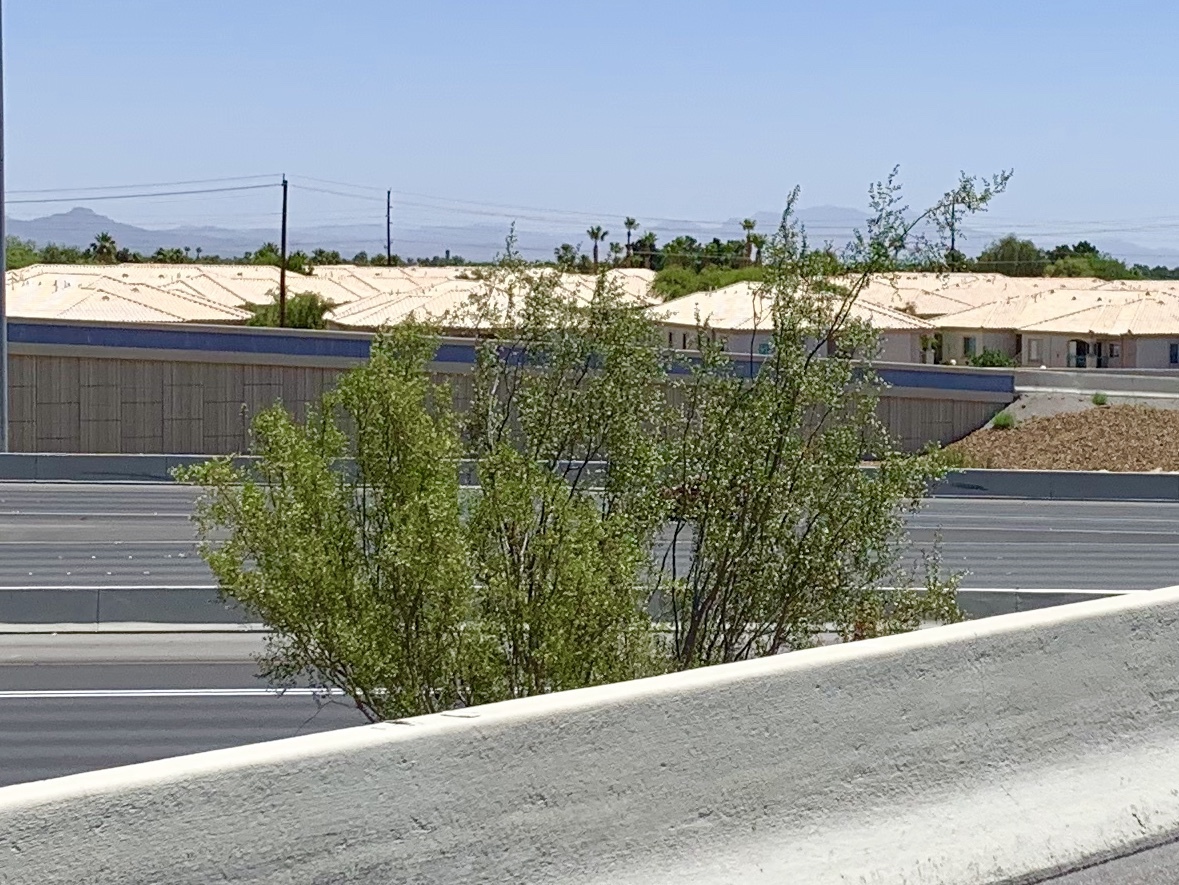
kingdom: Plantae
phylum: Tracheophyta
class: Magnoliopsida
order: Zygophyllales
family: Zygophyllaceae
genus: Larrea
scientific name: Larrea tridentata
